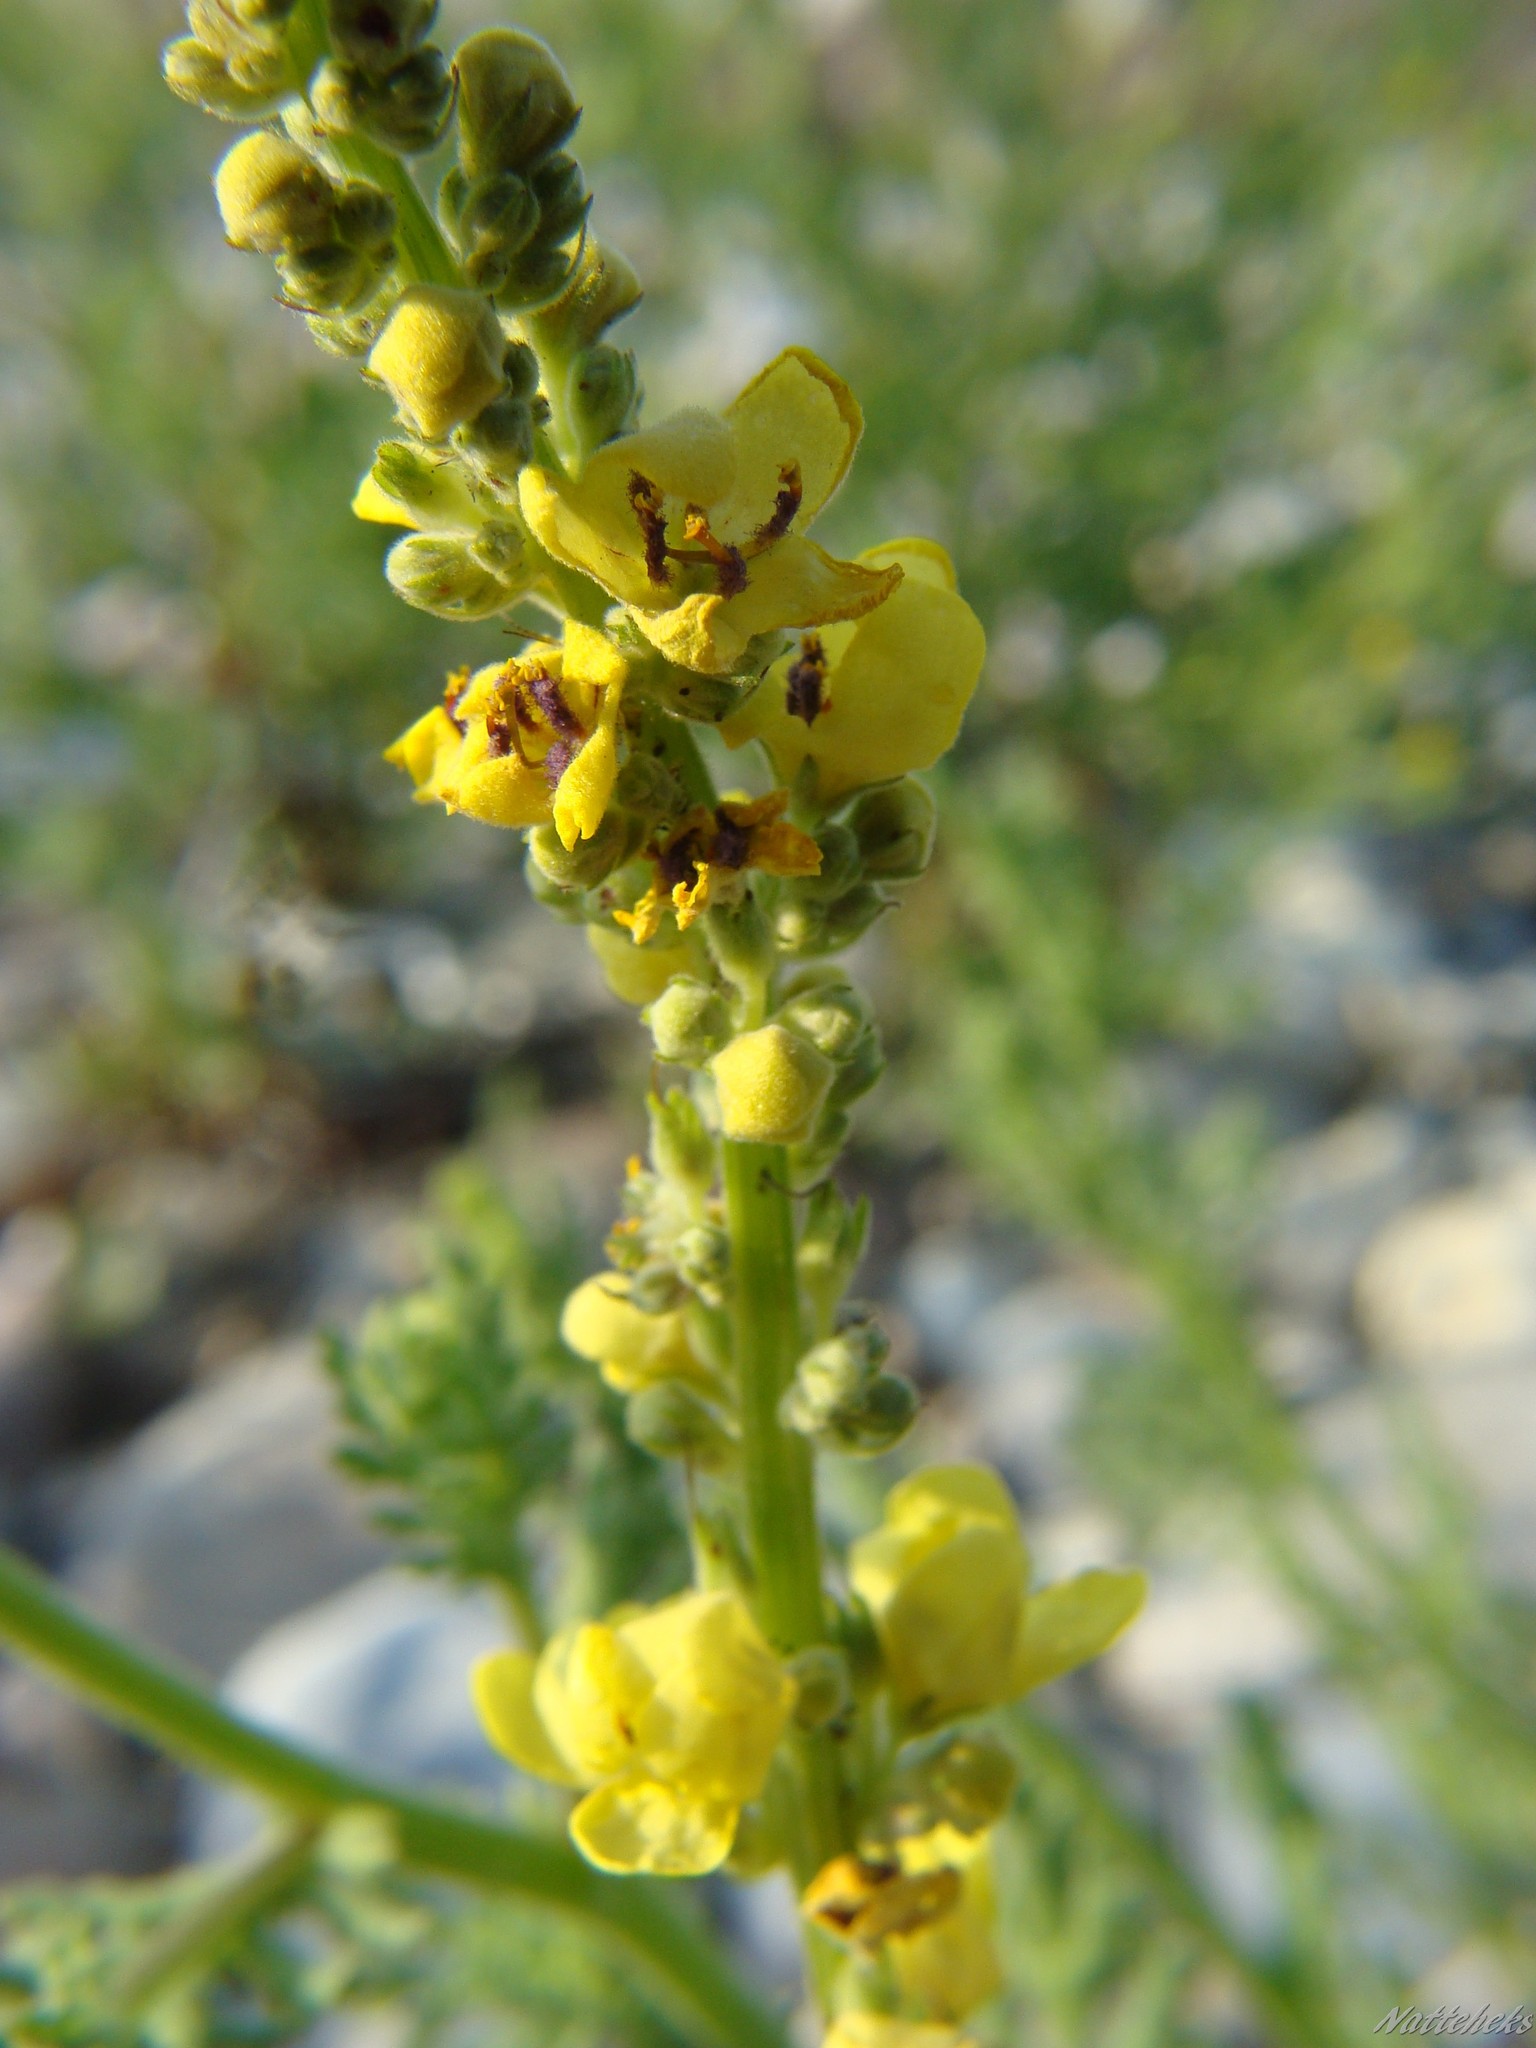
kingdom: Plantae
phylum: Tracheophyta
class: Magnoliopsida
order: Lamiales
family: Scrophulariaceae
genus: Verbascum
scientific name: Verbascum nigrum
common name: Dark mullein
